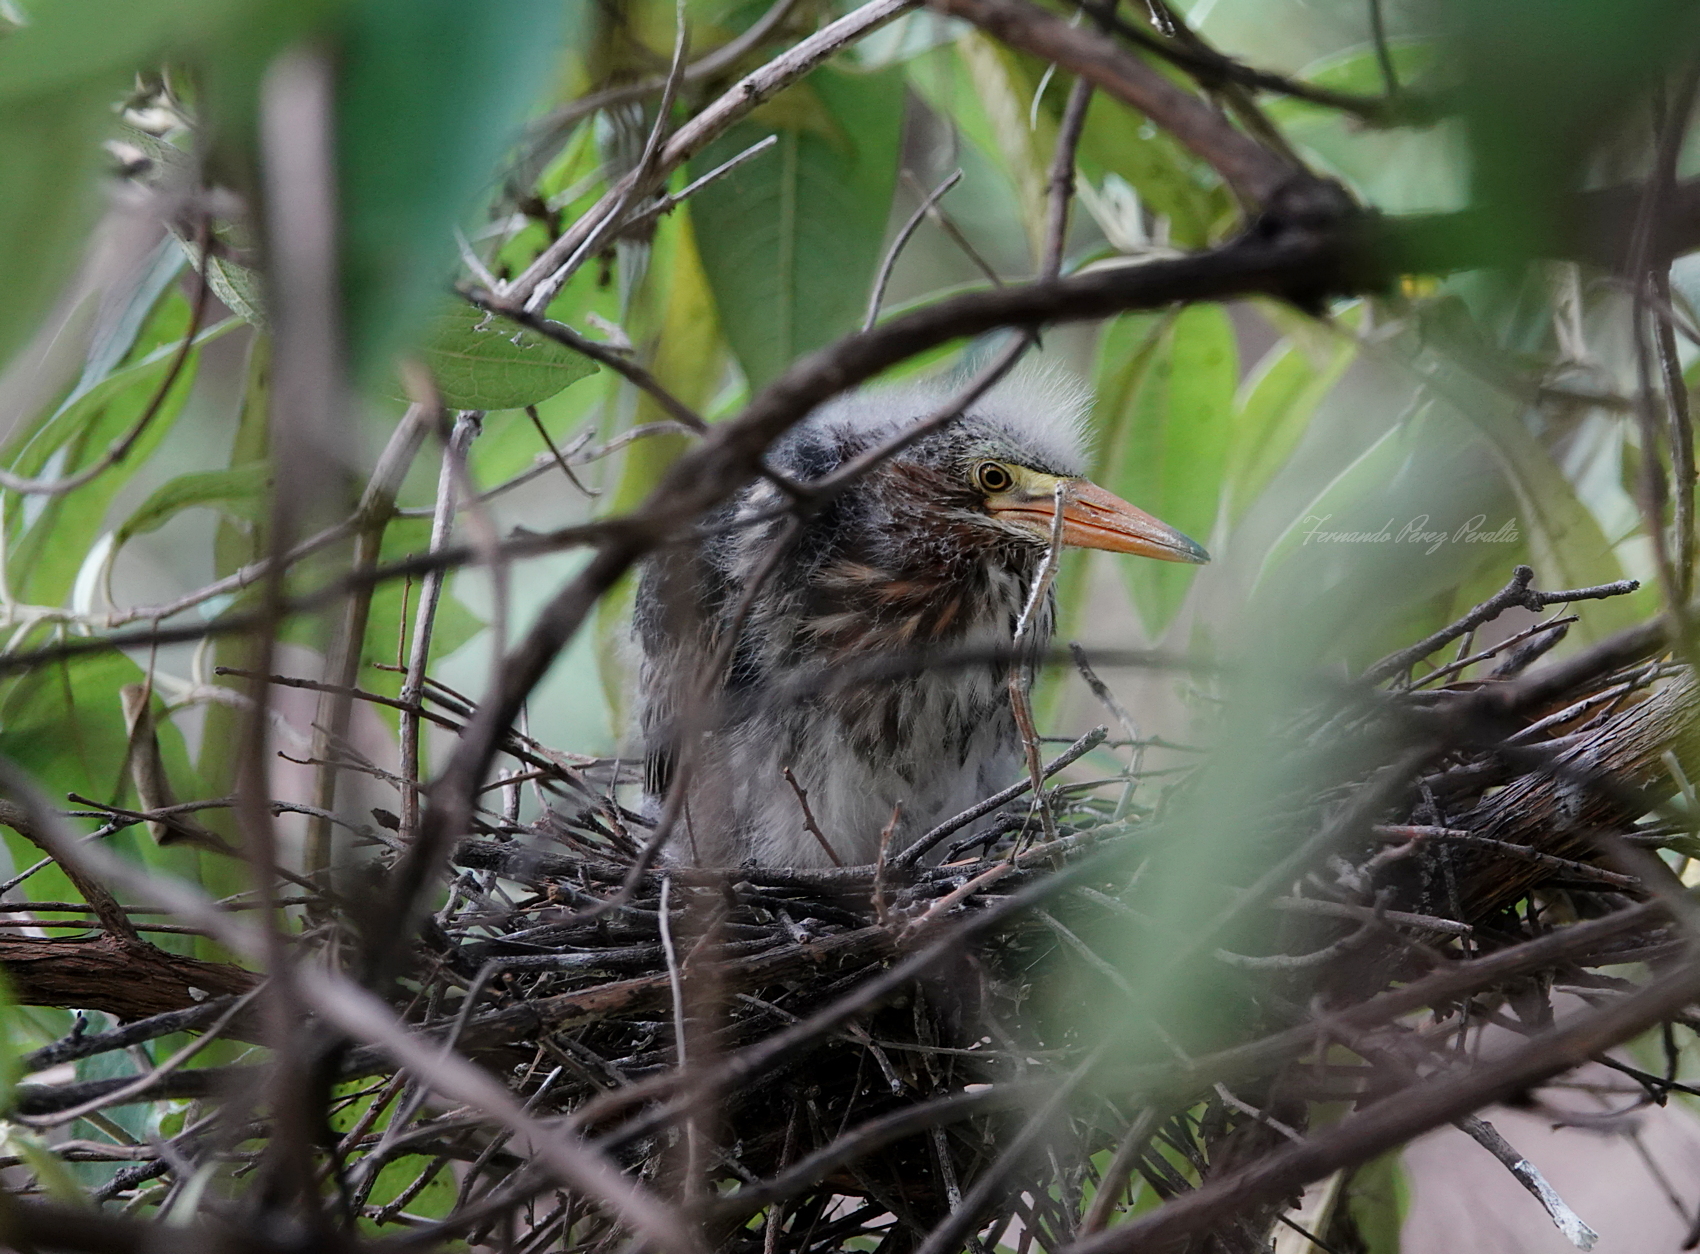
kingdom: Animalia
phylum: Chordata
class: Aves
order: Pelecaniformes
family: Ardeidae
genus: Butorides
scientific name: Butorides virescens
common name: Green heron
